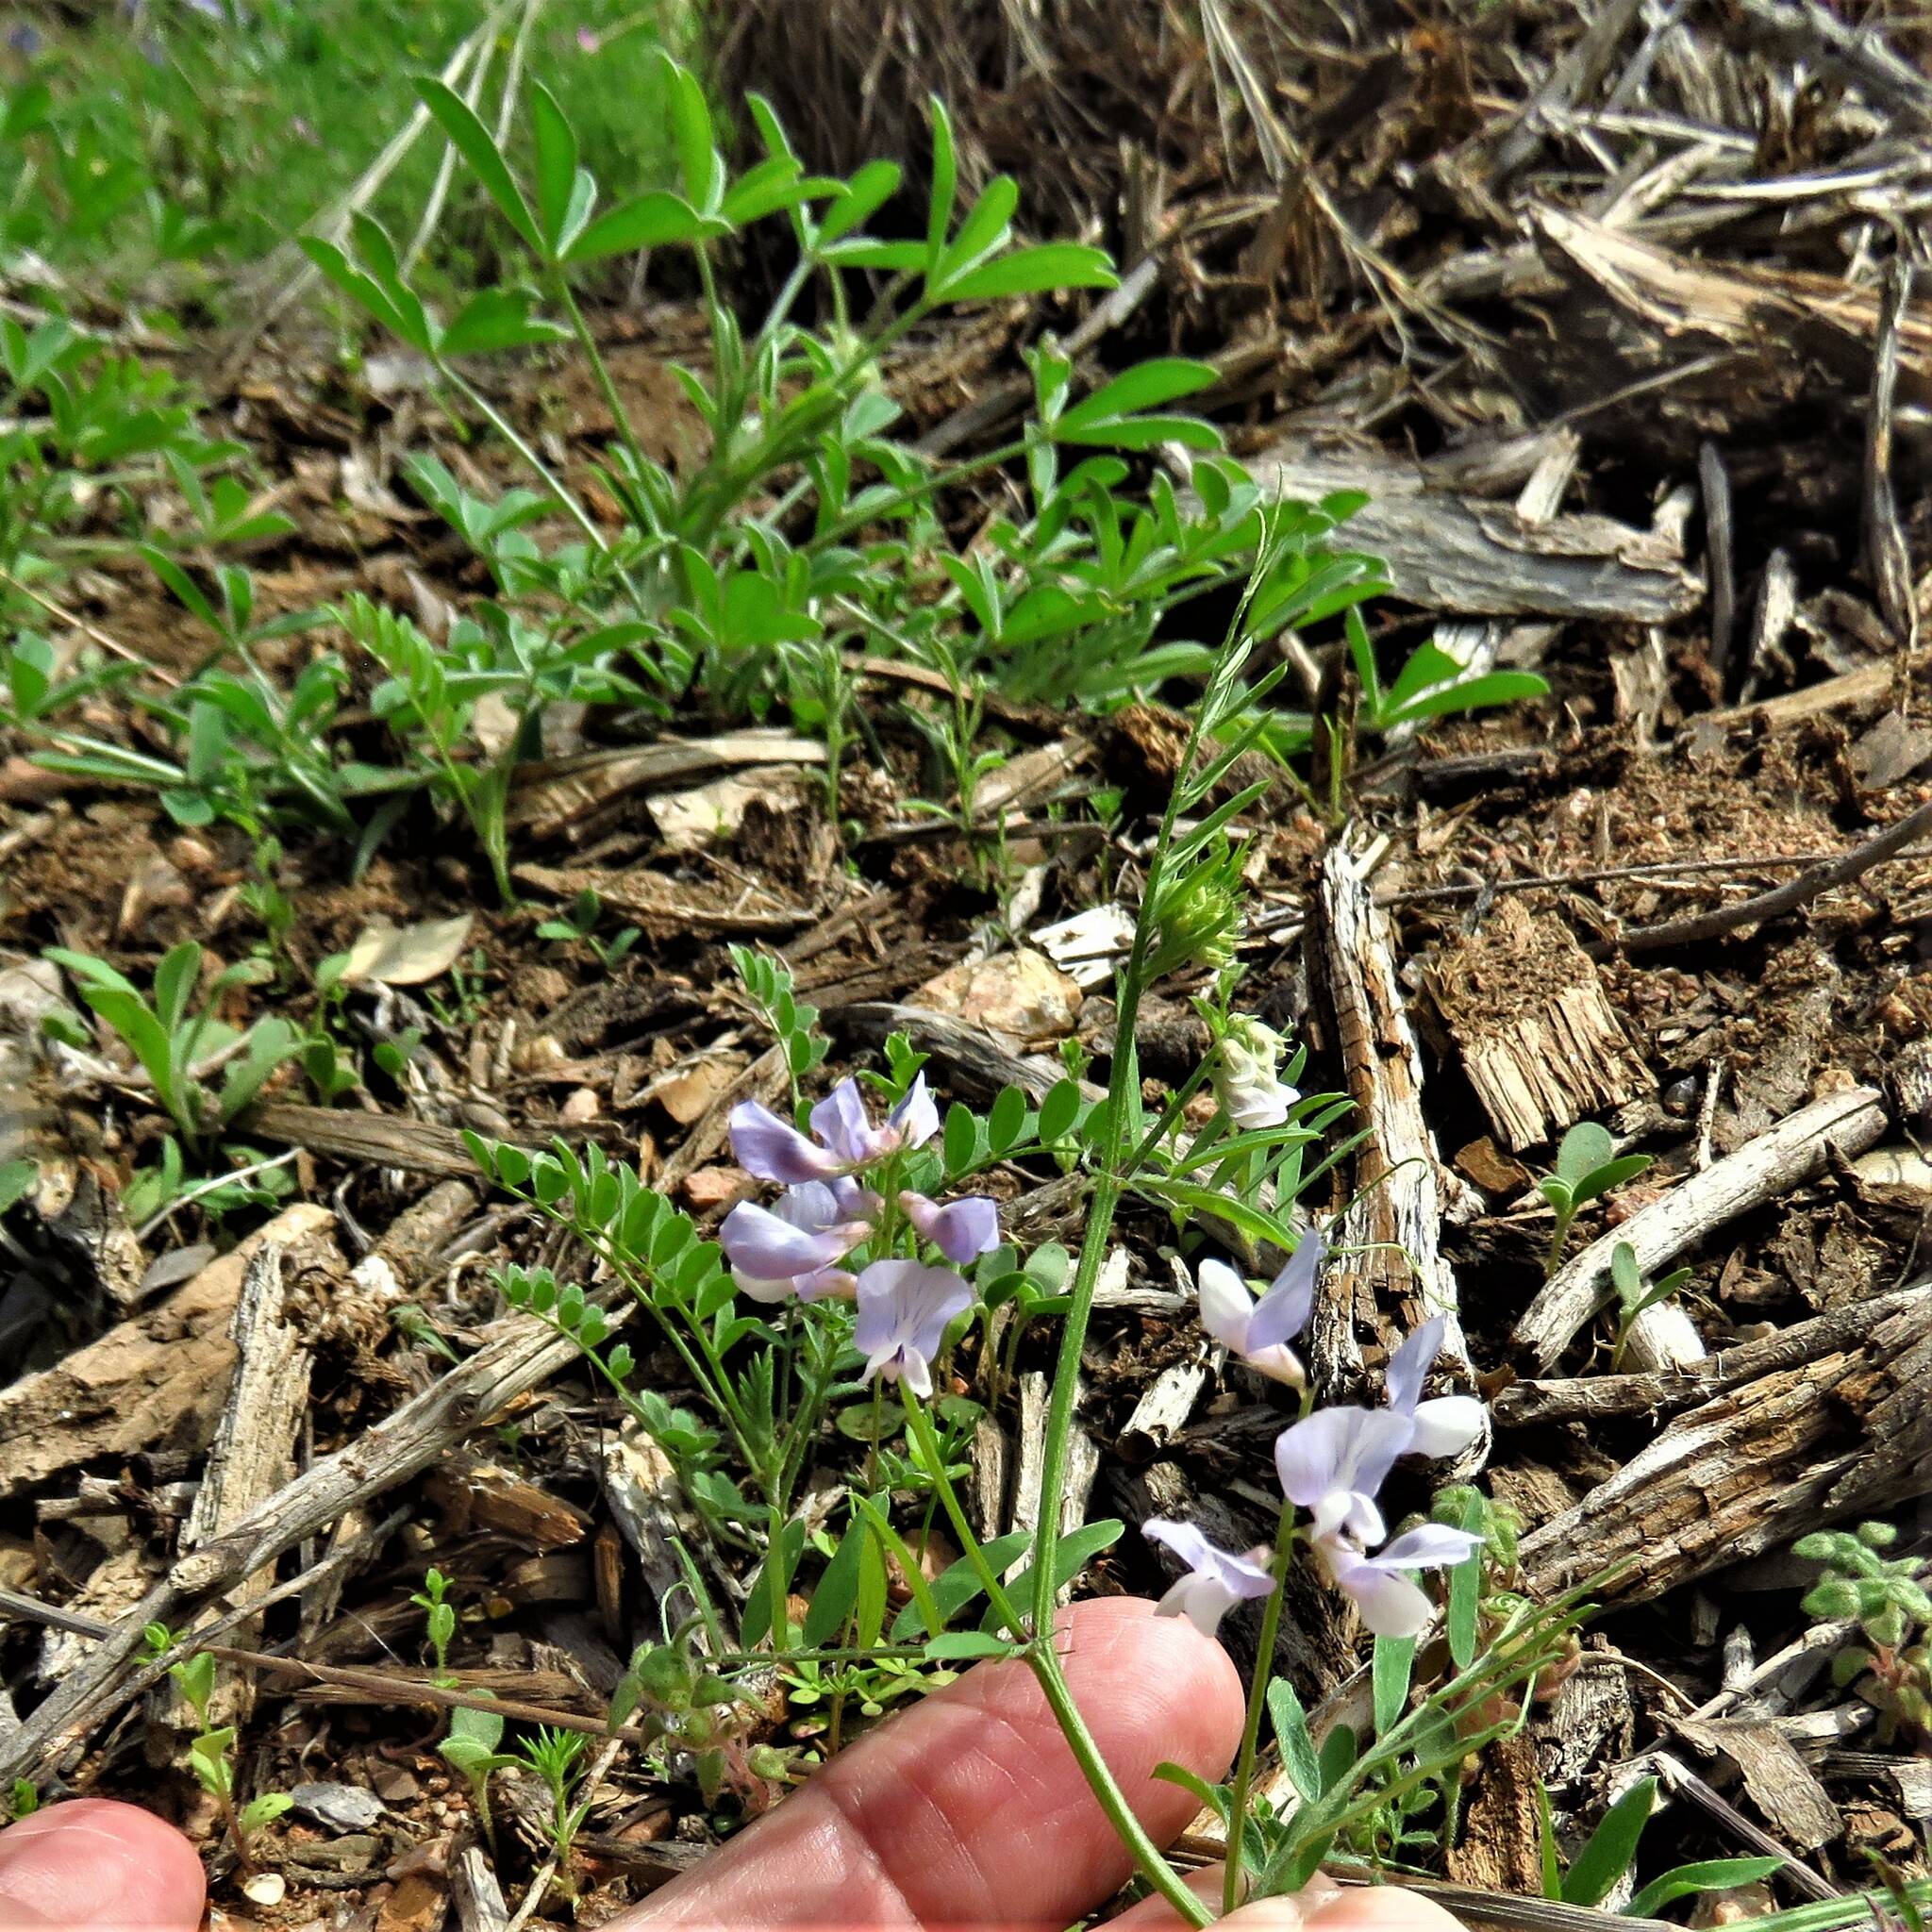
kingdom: Plantae
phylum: Tracheophyta
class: Magnoliopsida
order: Fabales
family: Fabaceae
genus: Vicia
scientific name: Vicia ludoviciana
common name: Louisiana vetch
